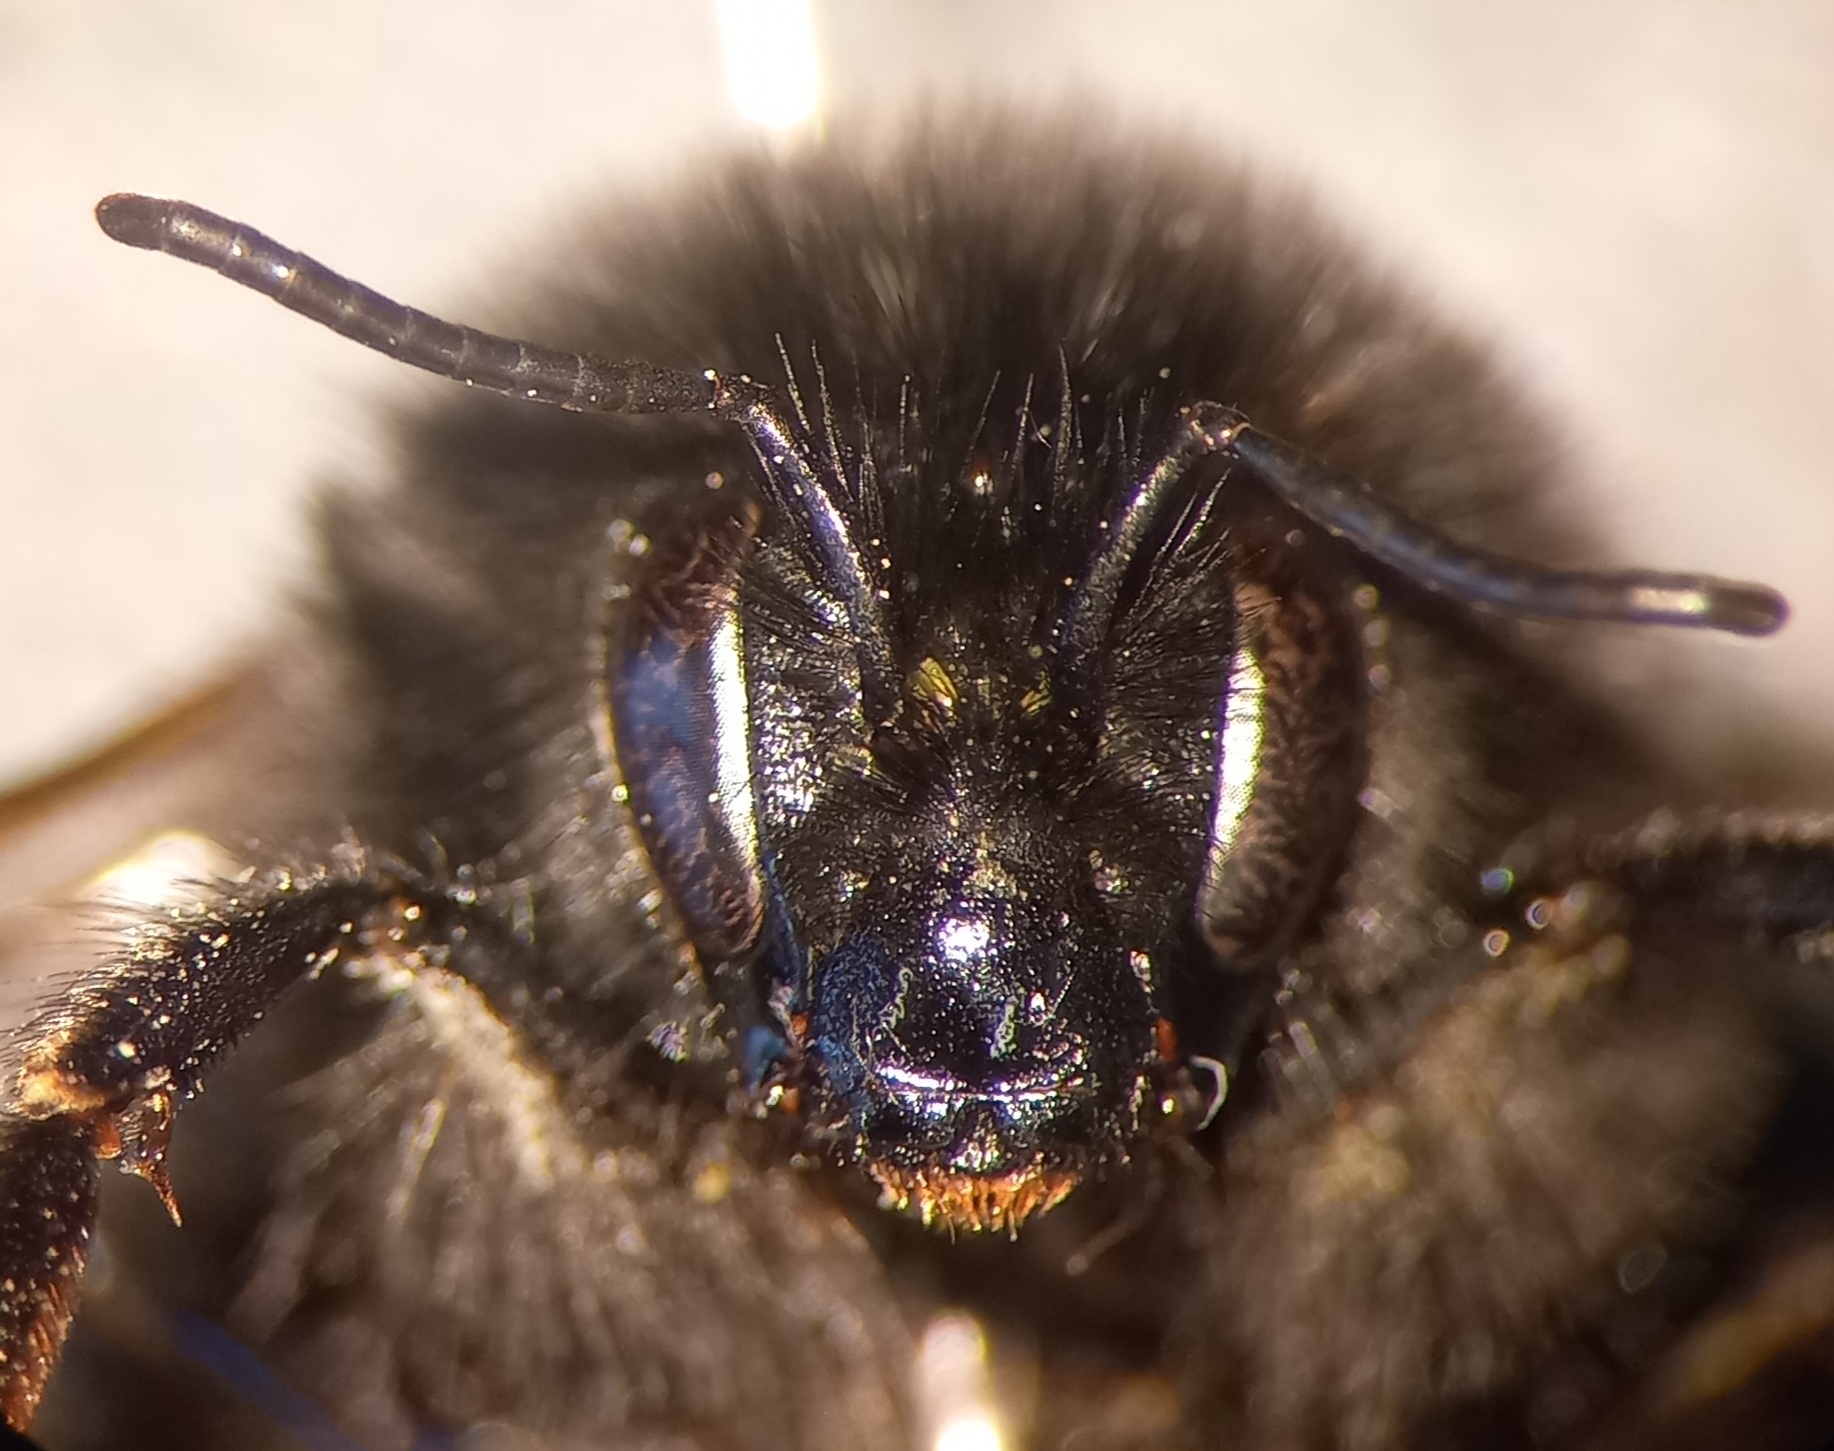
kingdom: Animalia
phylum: Arthropoda
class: Insecta
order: Hymenoptera
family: Apidae
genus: Bombus
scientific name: Bombus lapidarius
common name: Large red-tailed humble-bee
